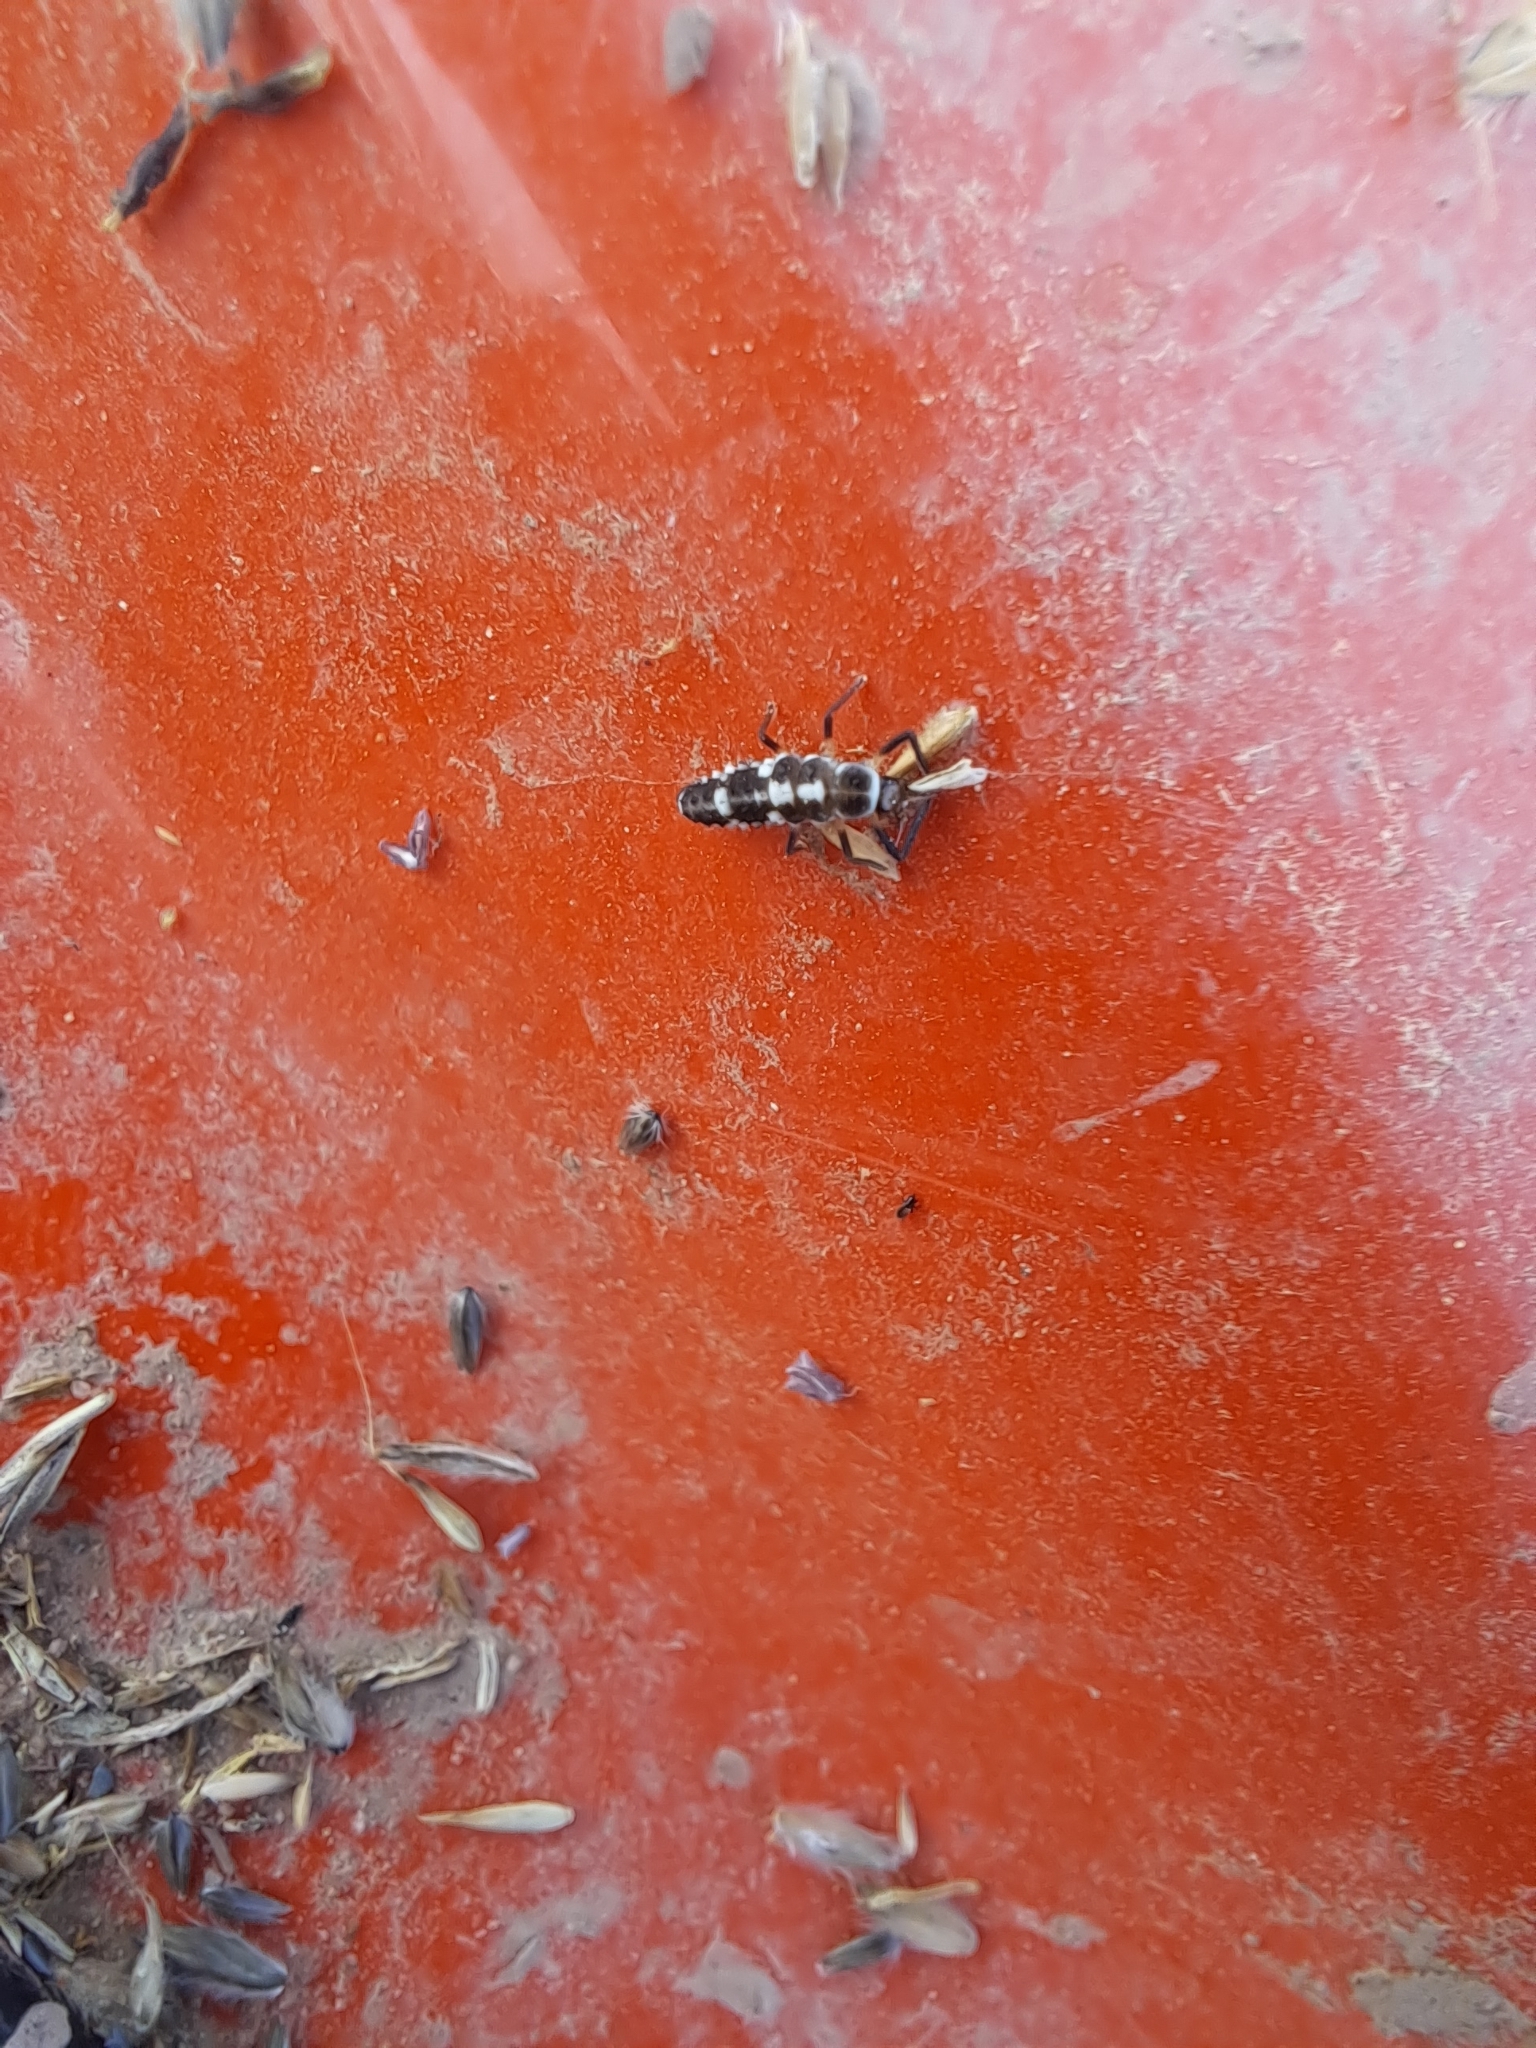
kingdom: Animalia
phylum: Arthropoda
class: Insecta
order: Coleoptera
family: Coccinellidae
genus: Propylaea
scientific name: Propylaea quatuordecimpunctata
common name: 14-spotted ladybird beetle
